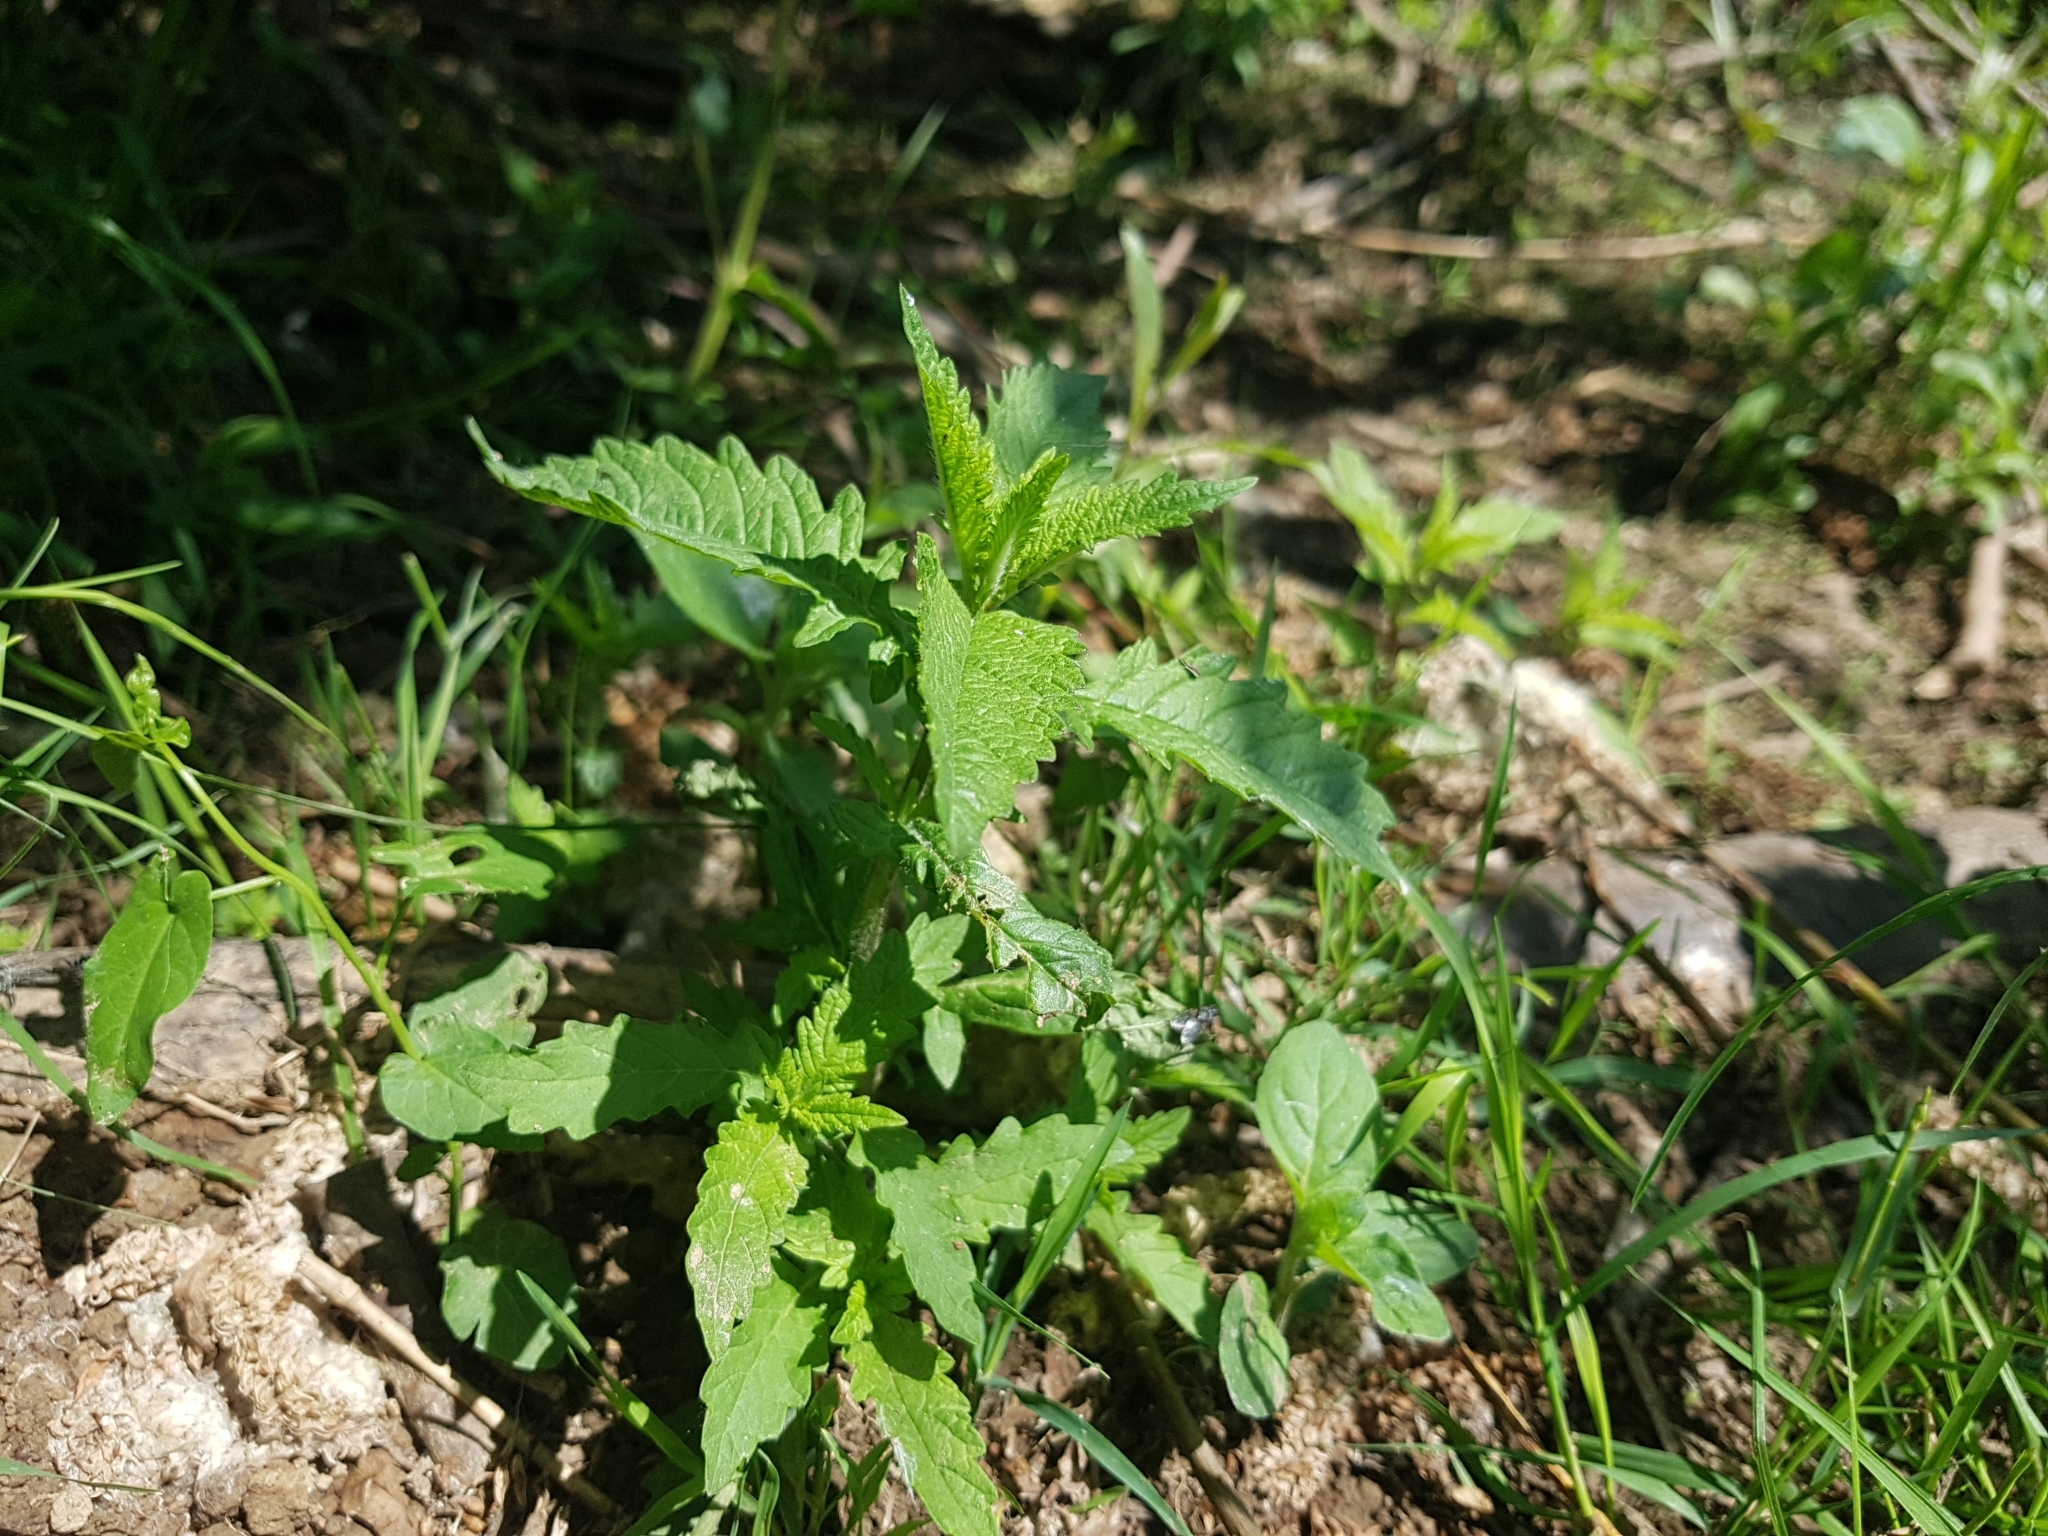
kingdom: Plantae
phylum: Tracheophyta
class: Magnoliopsida
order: Lamiales
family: Lamiaceae
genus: Lycopus
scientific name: Lycopus europaeus
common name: European bugleweed
